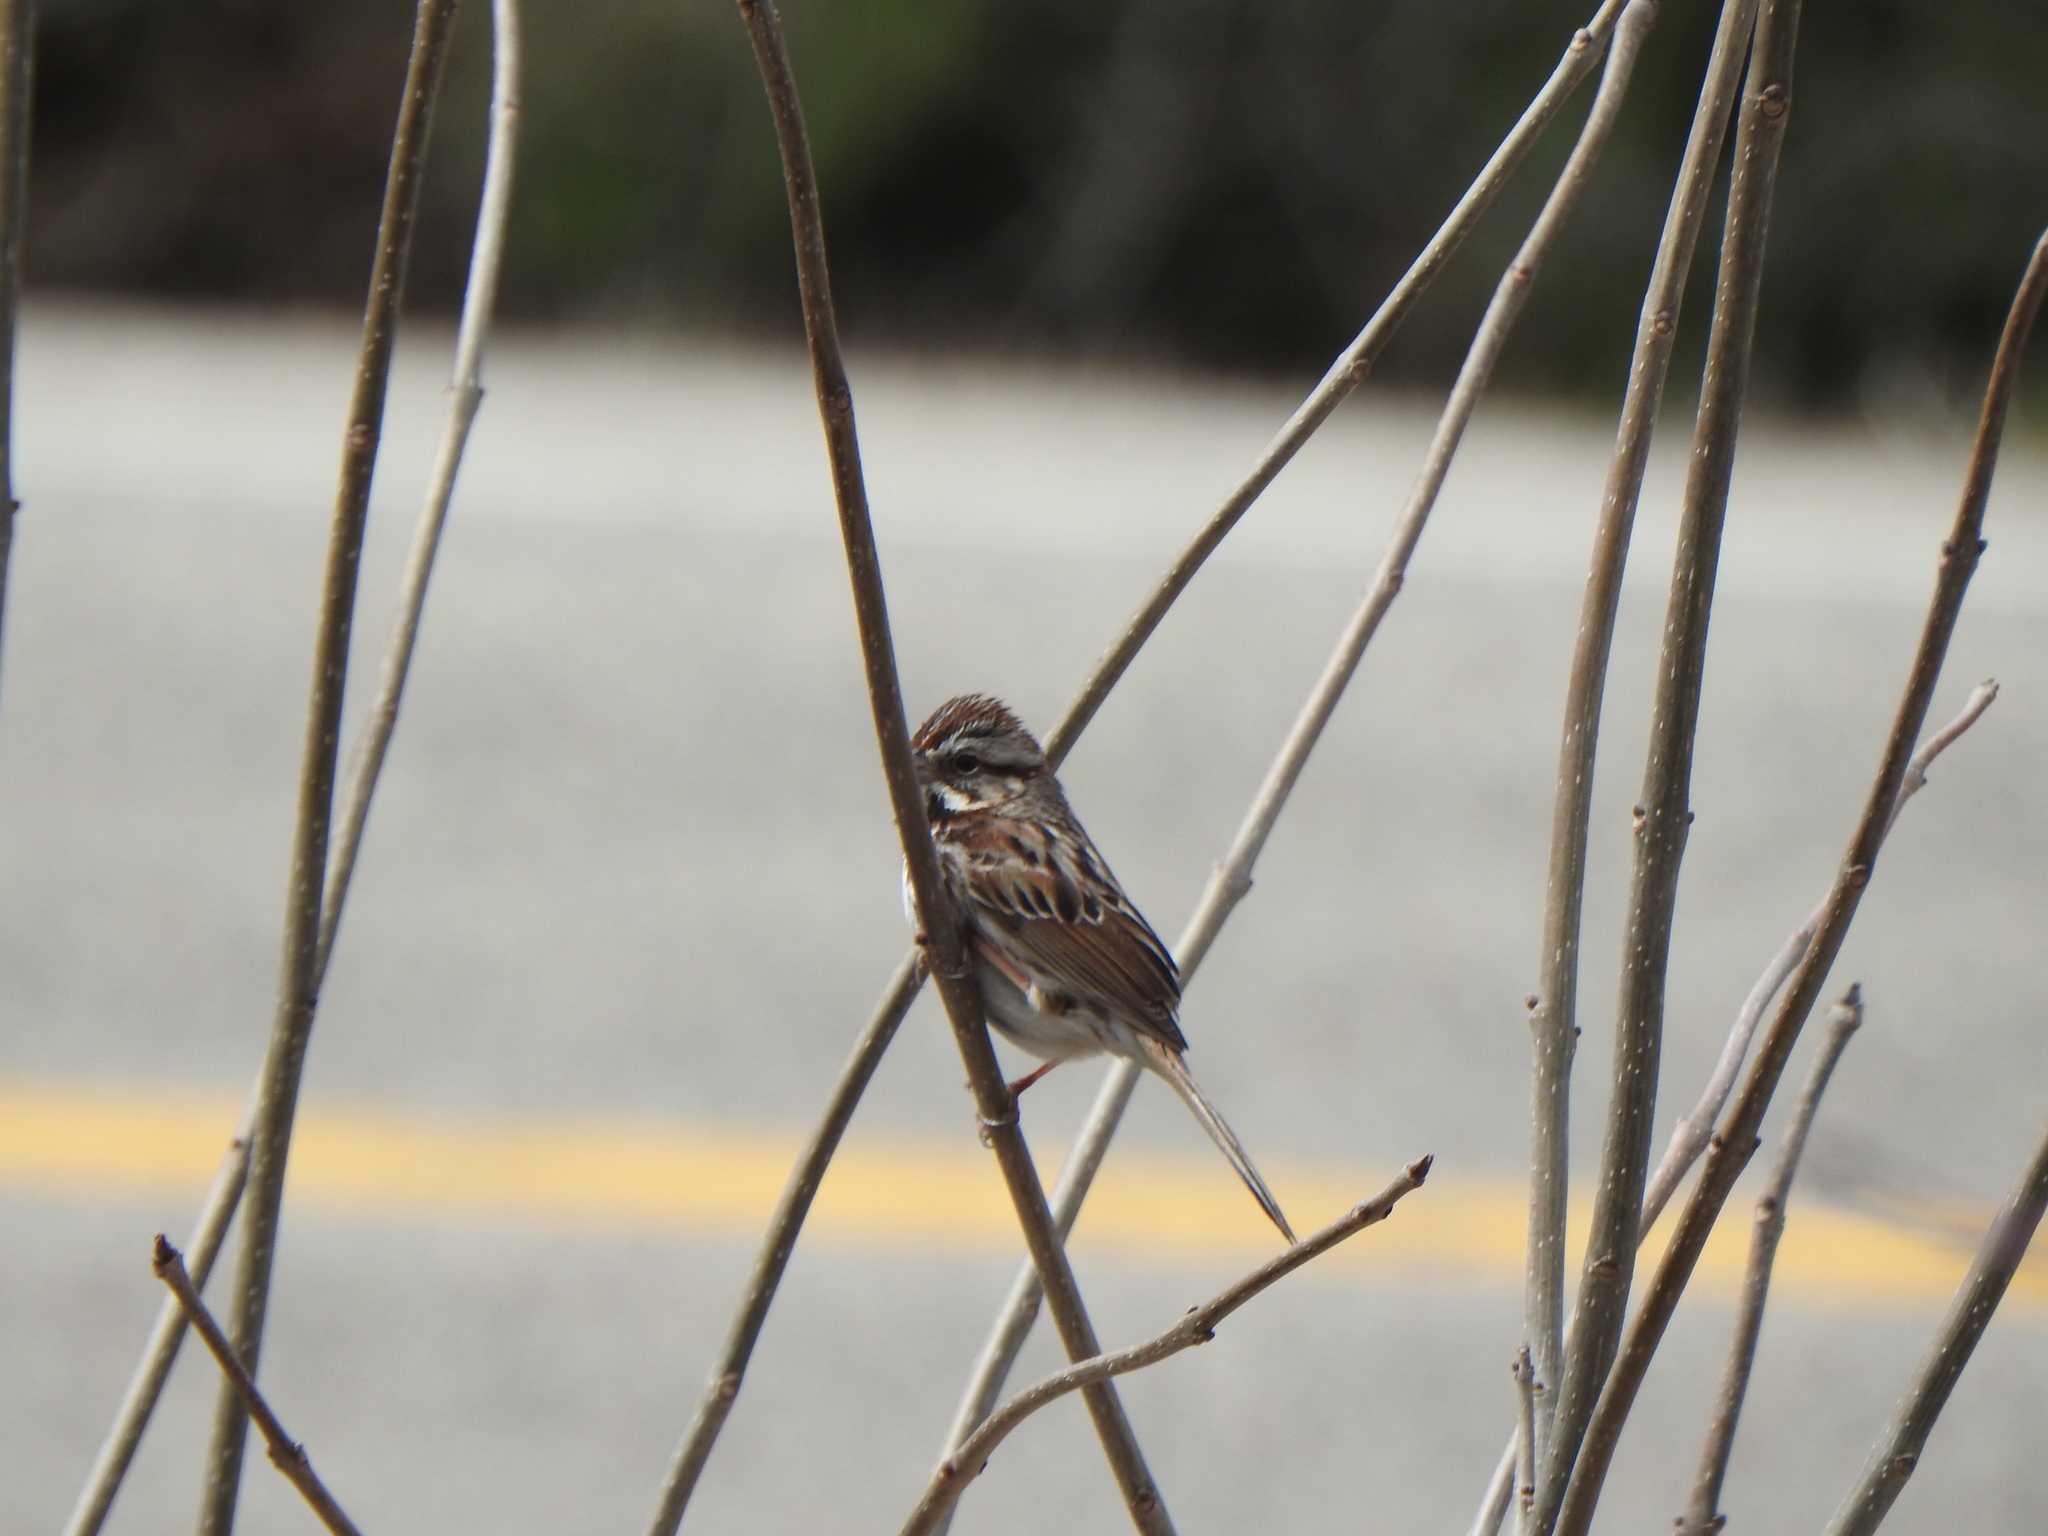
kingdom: Animalia
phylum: Chordata
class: Aves
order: Passeriformes
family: Passerellidae
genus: Melospiza
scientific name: Melospiza melodia
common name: Song sparrow
